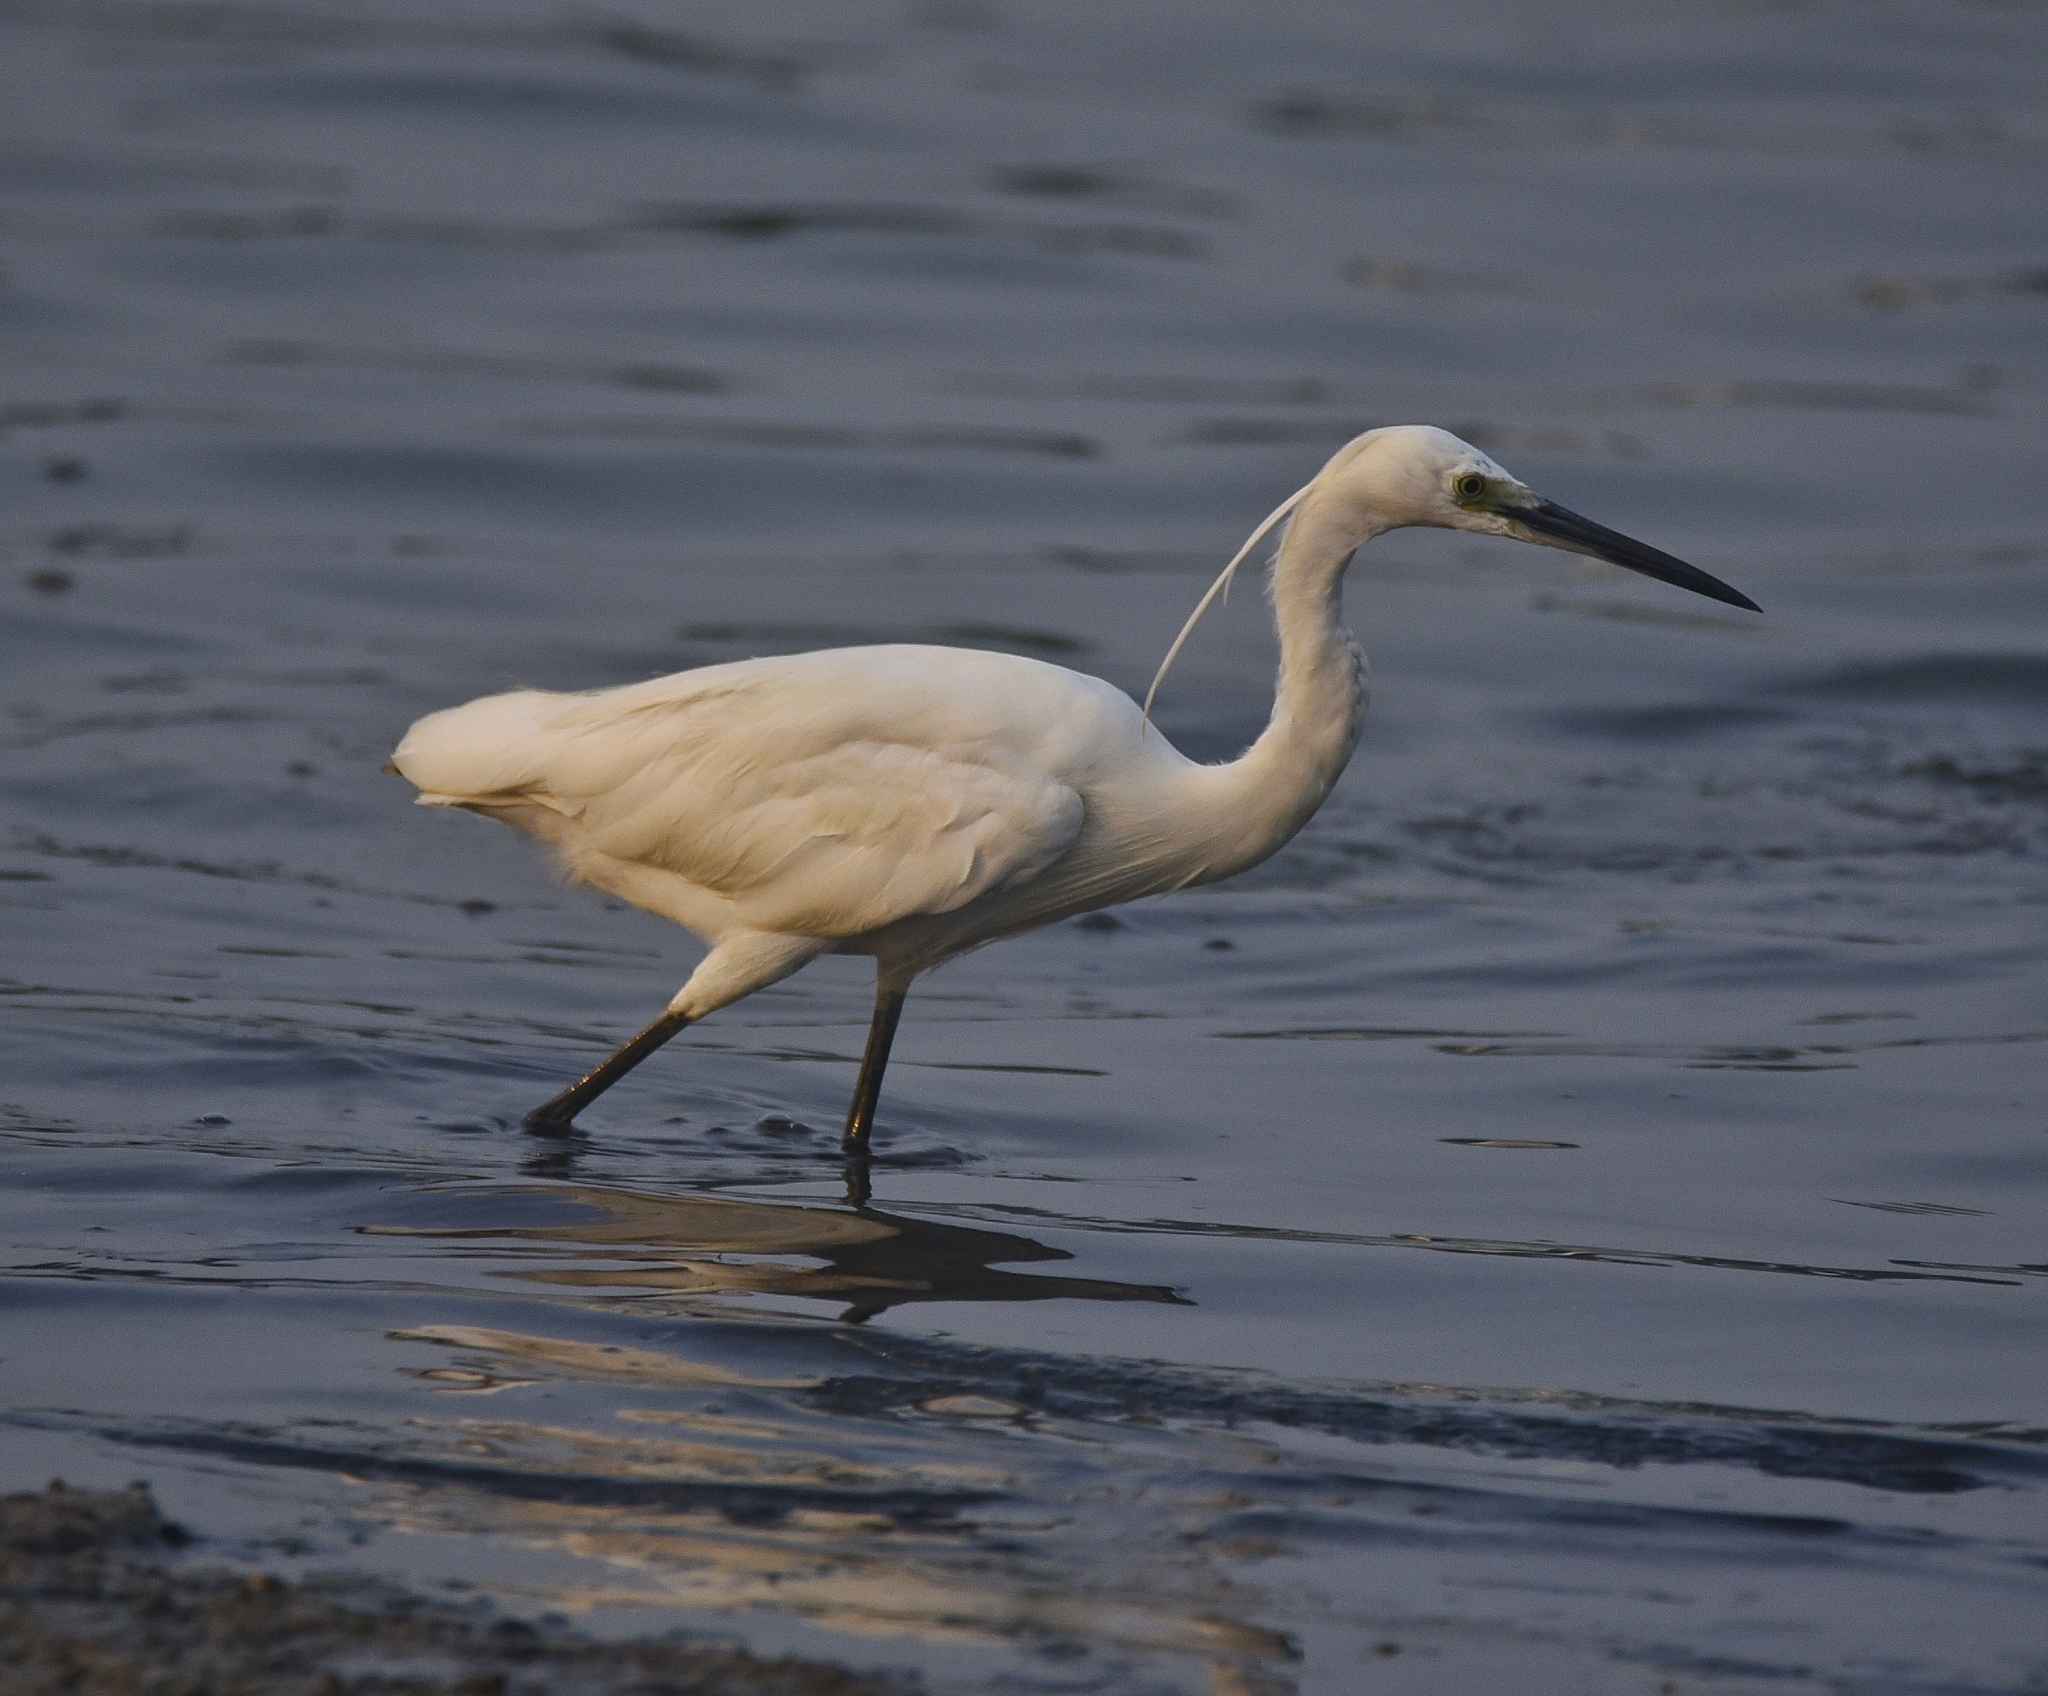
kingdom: Animalia
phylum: Chordata
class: Aves
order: Pelecaniformes
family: Ardeidae
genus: Egretta
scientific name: Egretta garzetta
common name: Little egret
